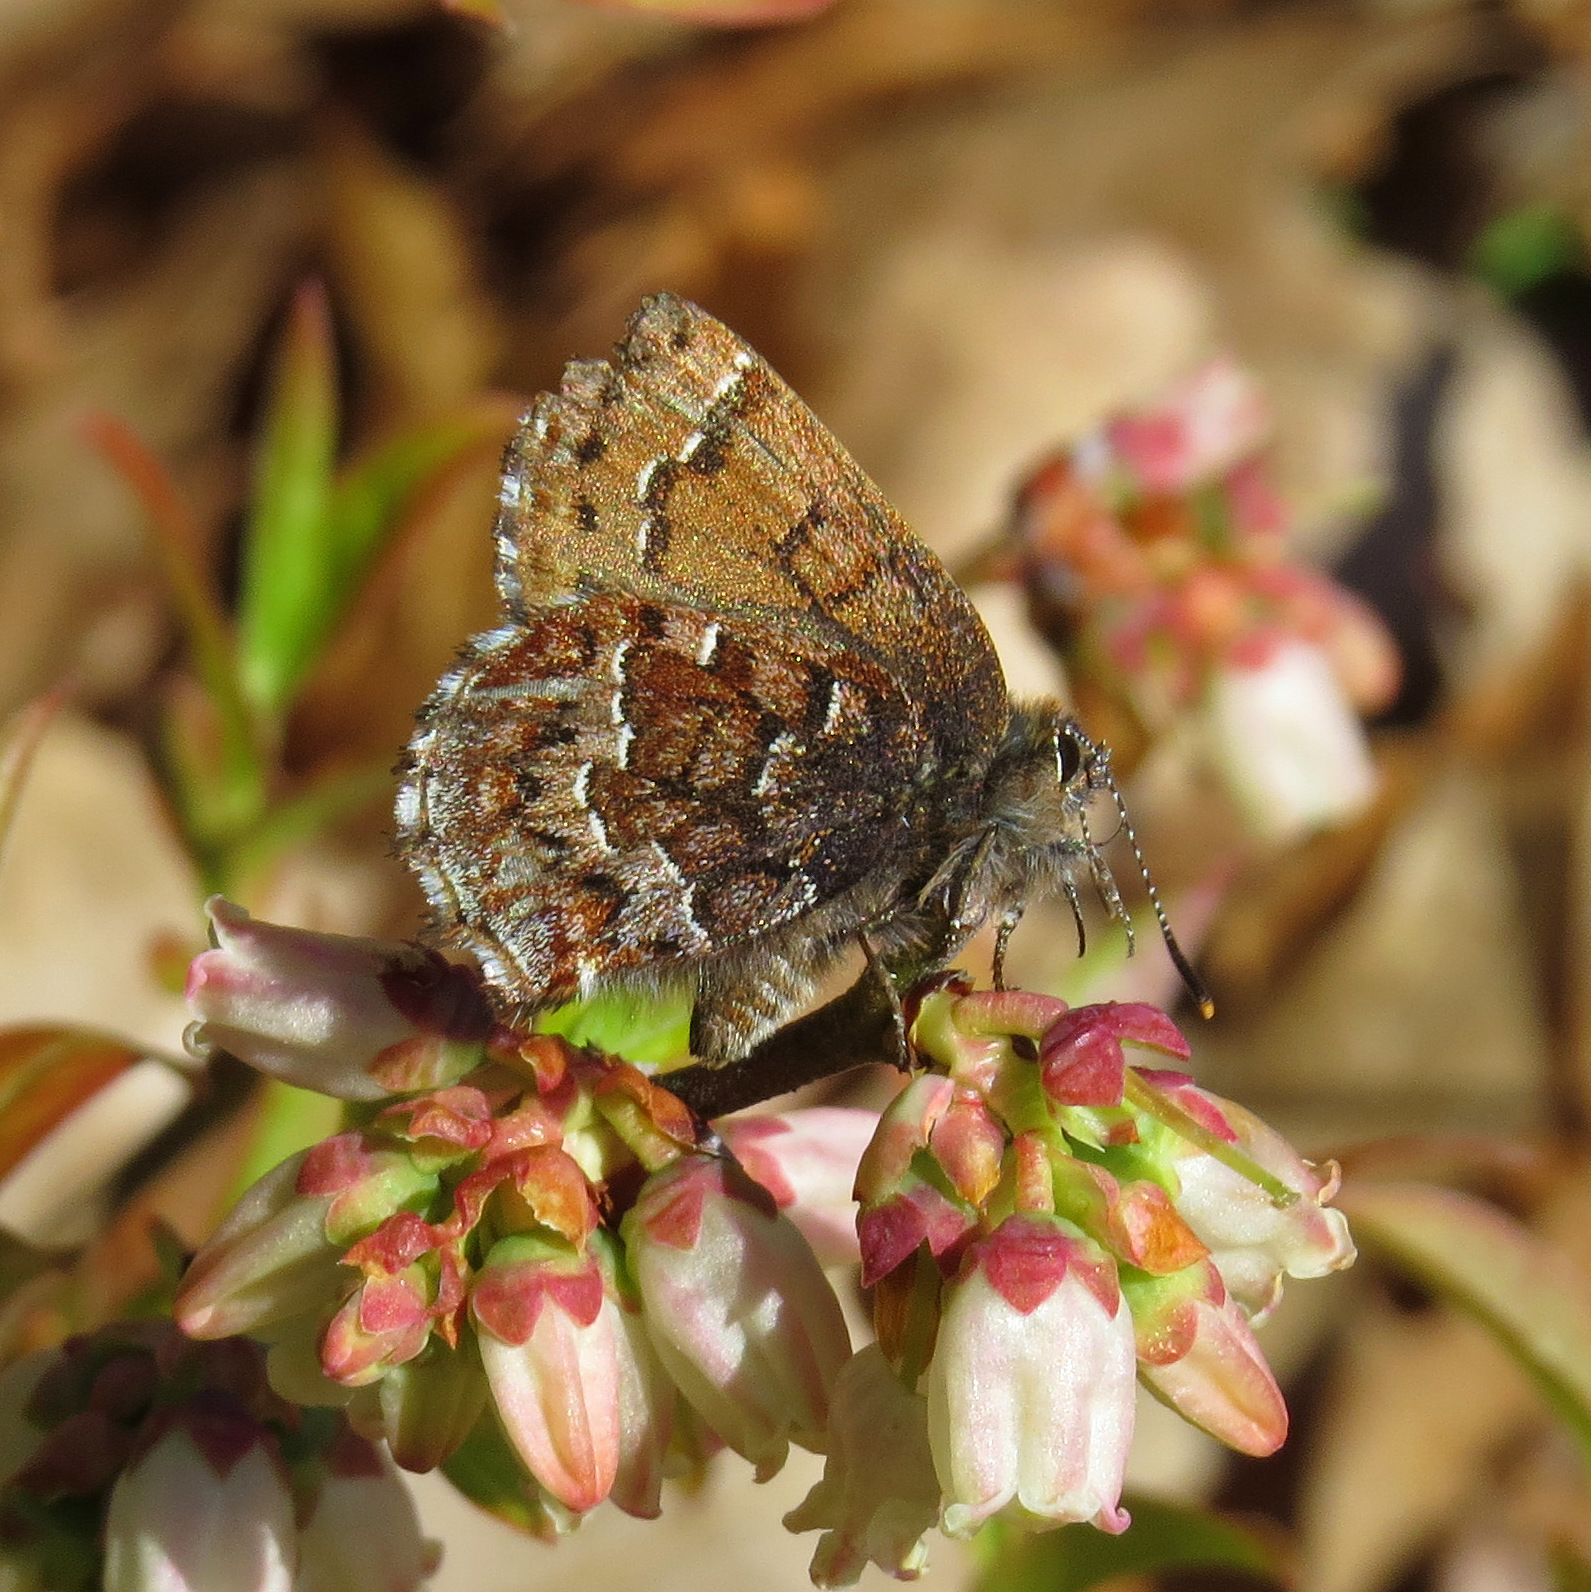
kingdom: Animalia
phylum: Arthropoda
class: Insecta
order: Lepidoptera
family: Lycaenidae
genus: Incisalia
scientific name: Incisalia niphon
